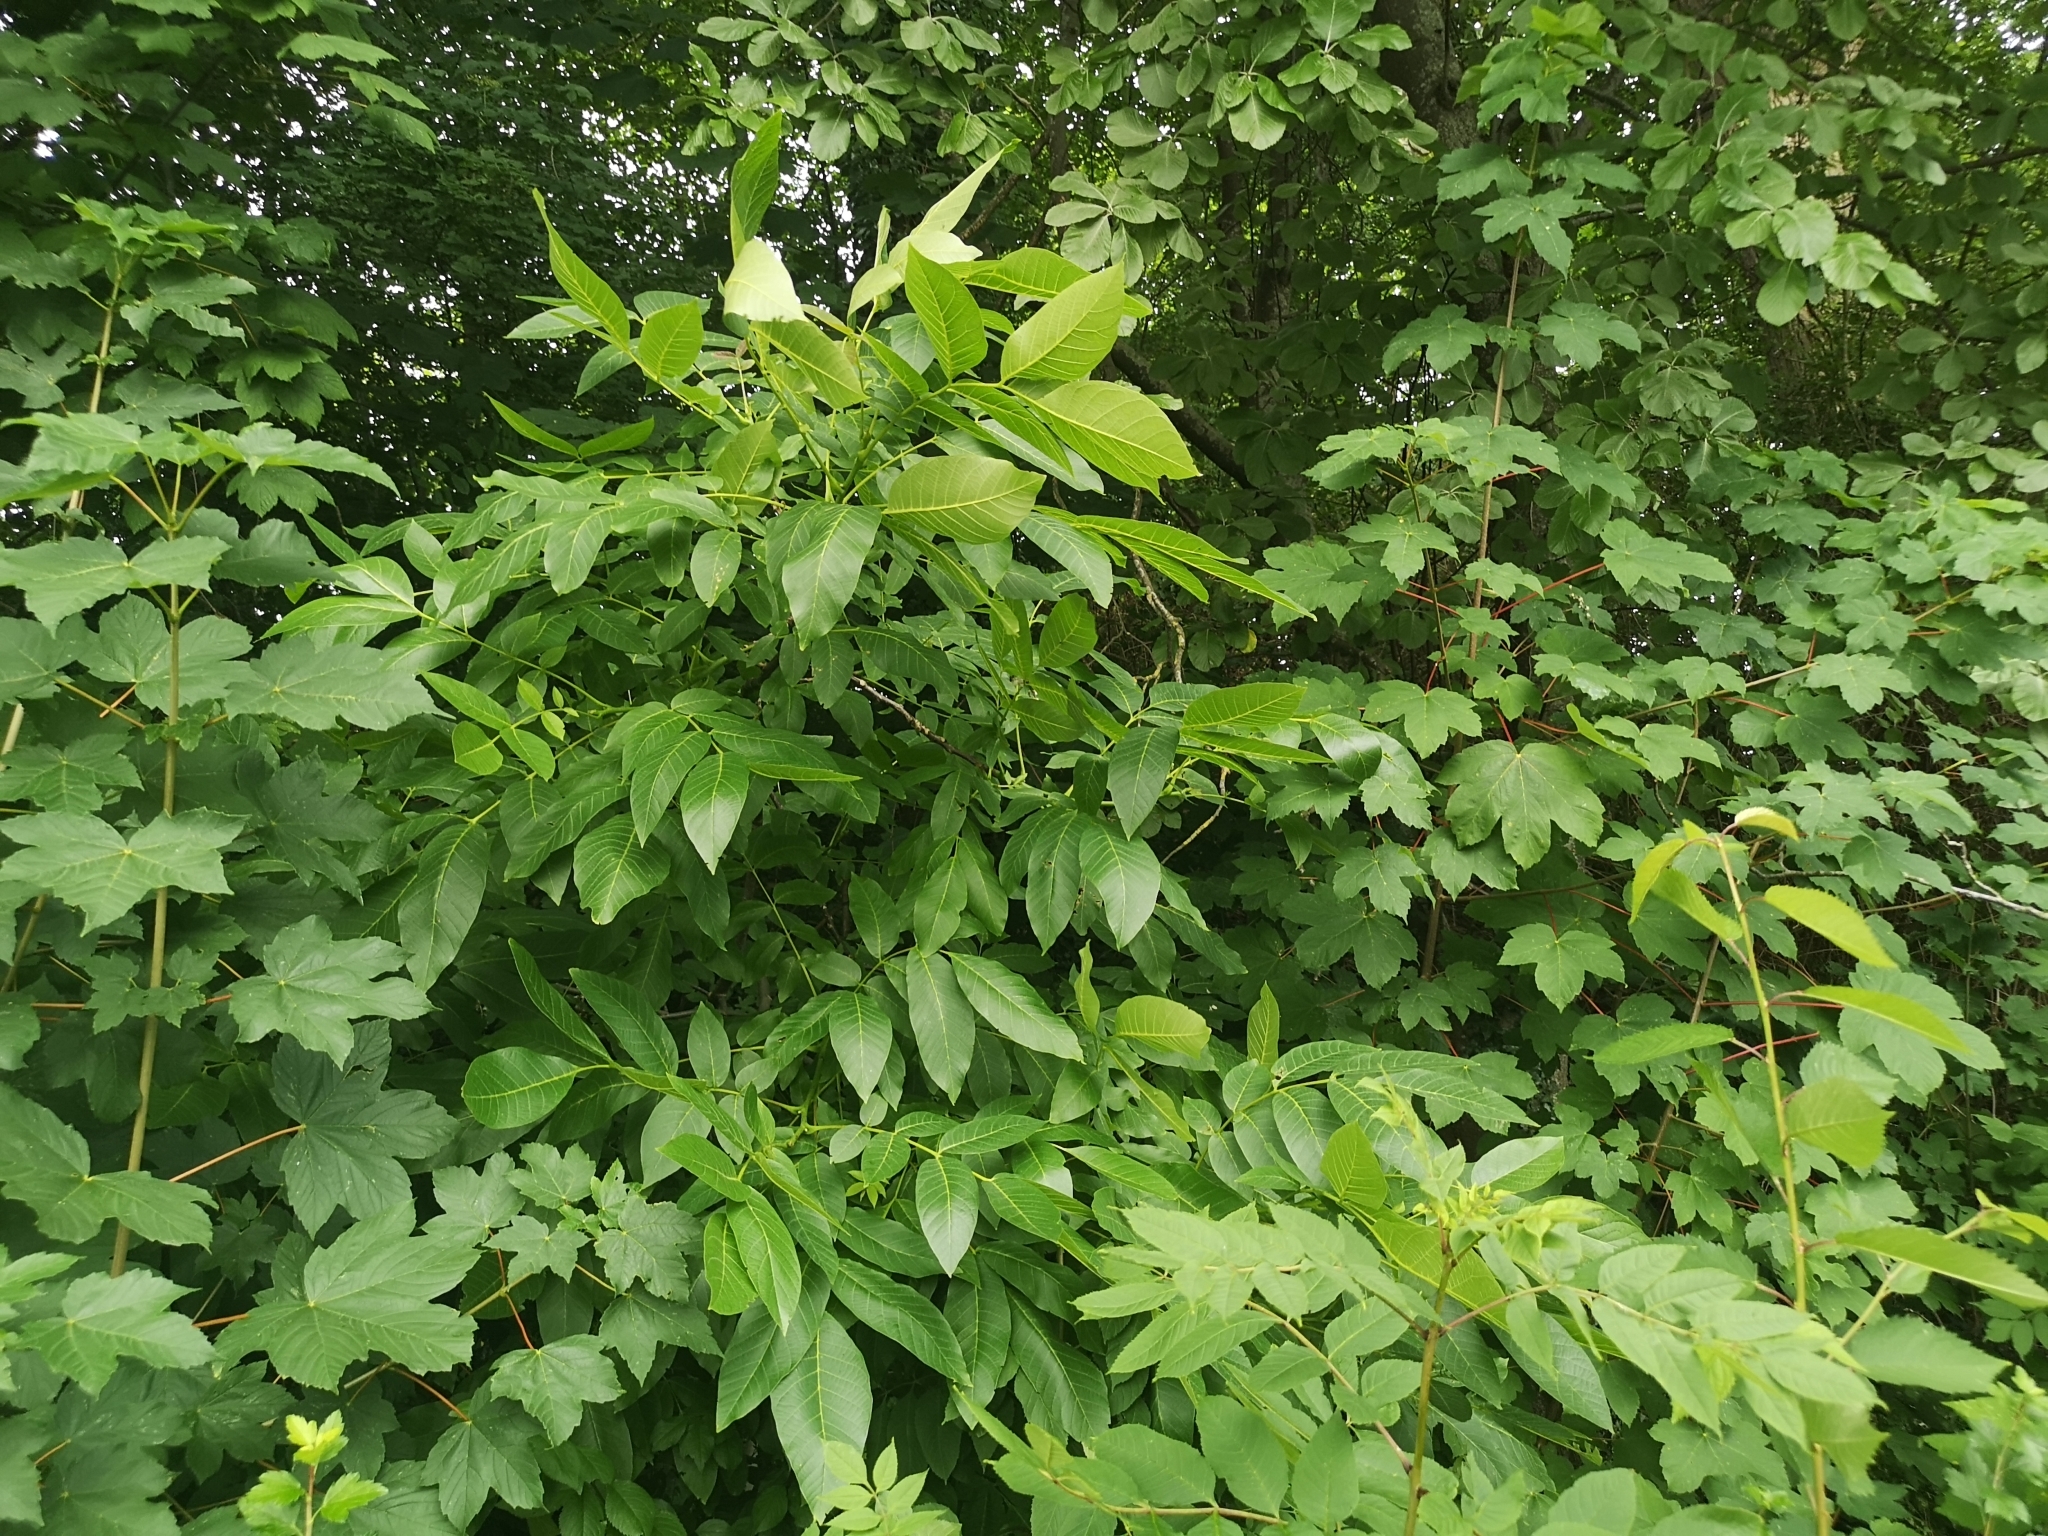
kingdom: Plantae
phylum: Tracheophyta
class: Magnoliopsida
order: Fagales
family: Juglandaceae
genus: Juglans
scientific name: Juglans regia
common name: Walnut
